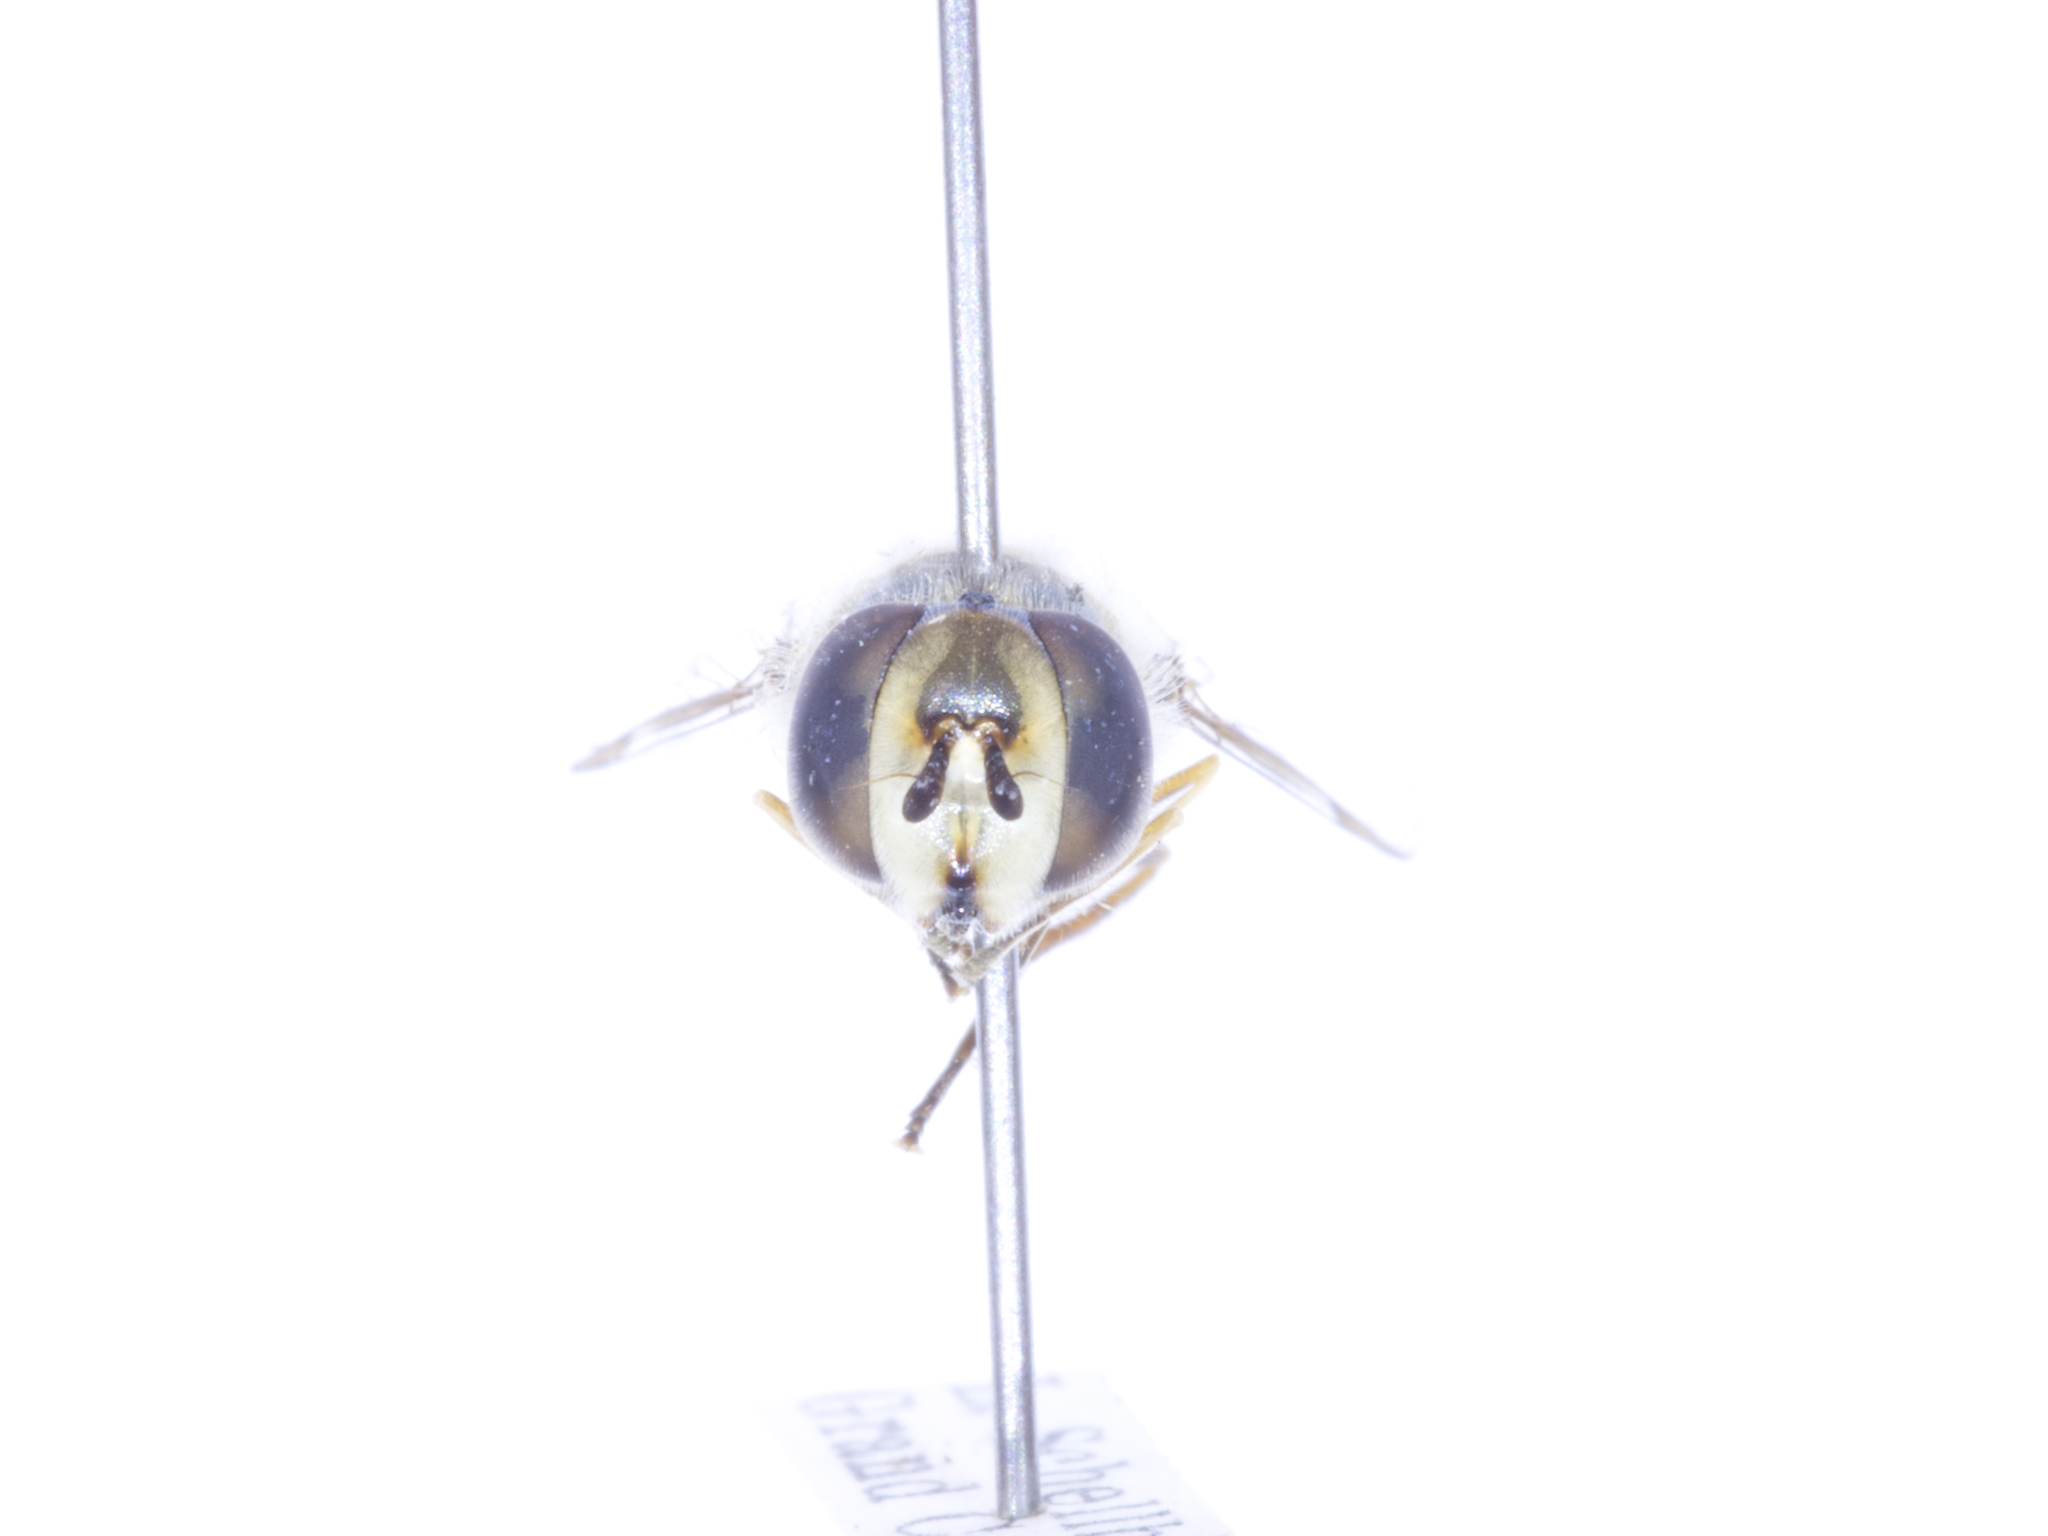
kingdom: Animalia
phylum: Arthropoda
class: Insecta
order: Diptera
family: Syrphidae
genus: Scaeva
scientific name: Scaeva affinis
